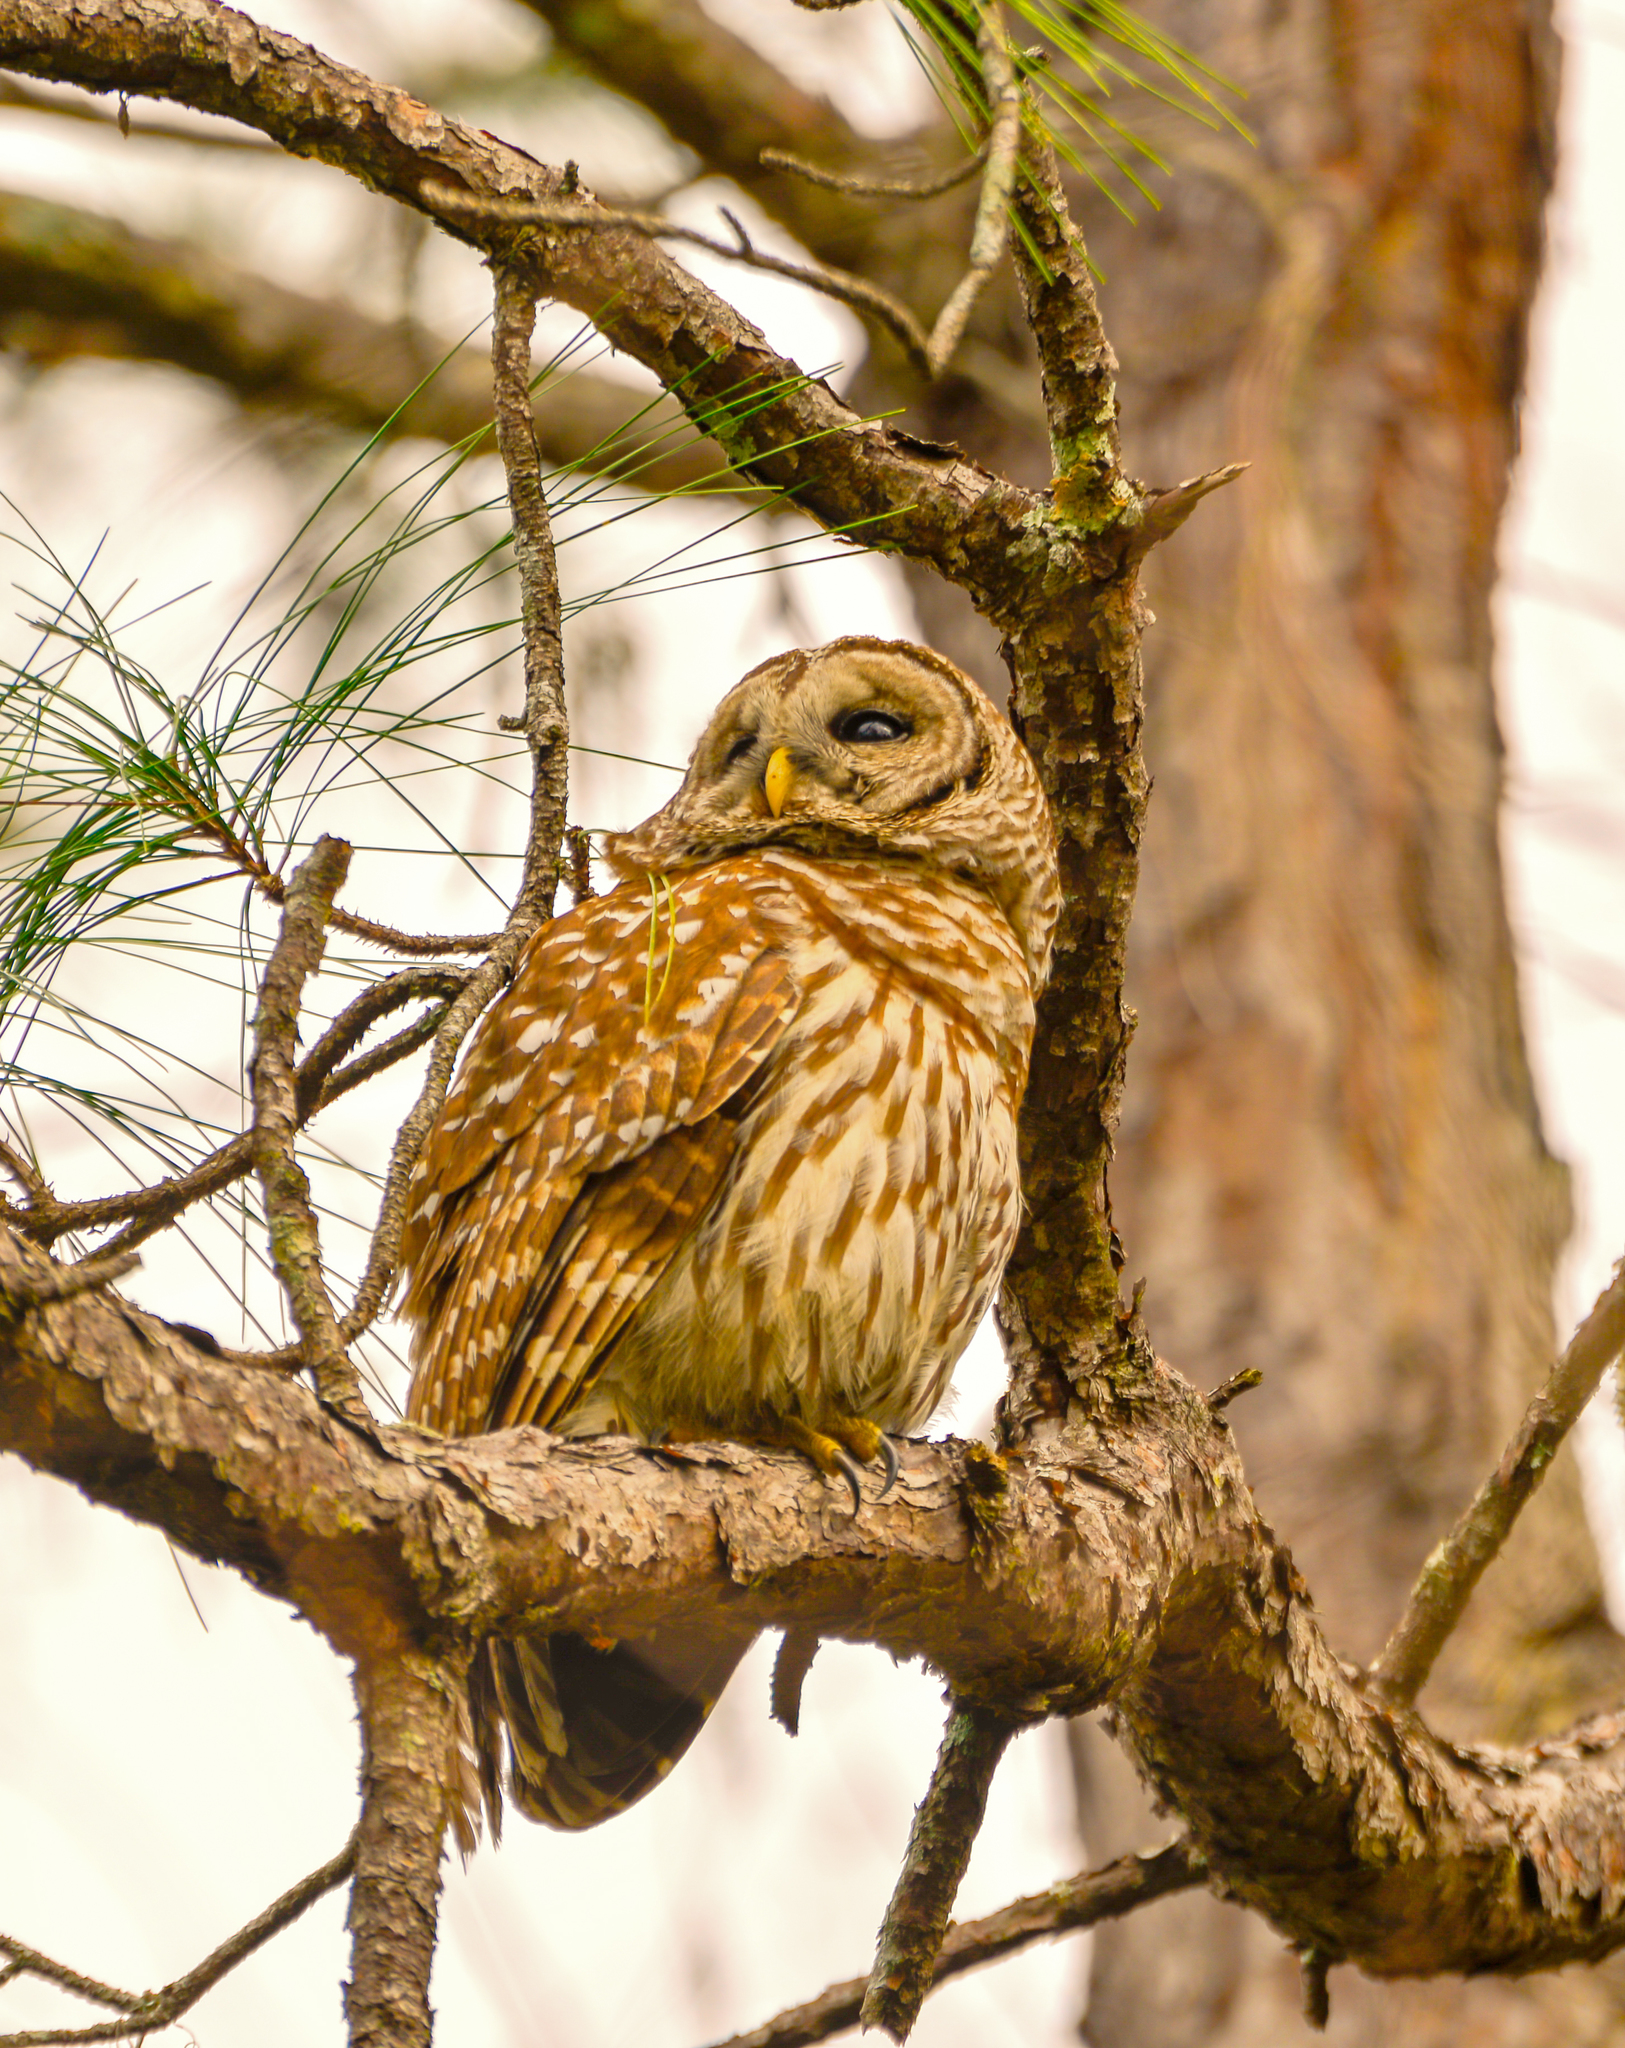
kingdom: Animalia
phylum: Chordata
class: Aves
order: Strigiformes
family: Strigidae
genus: Strix
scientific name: Strix varia
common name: Barred owl
